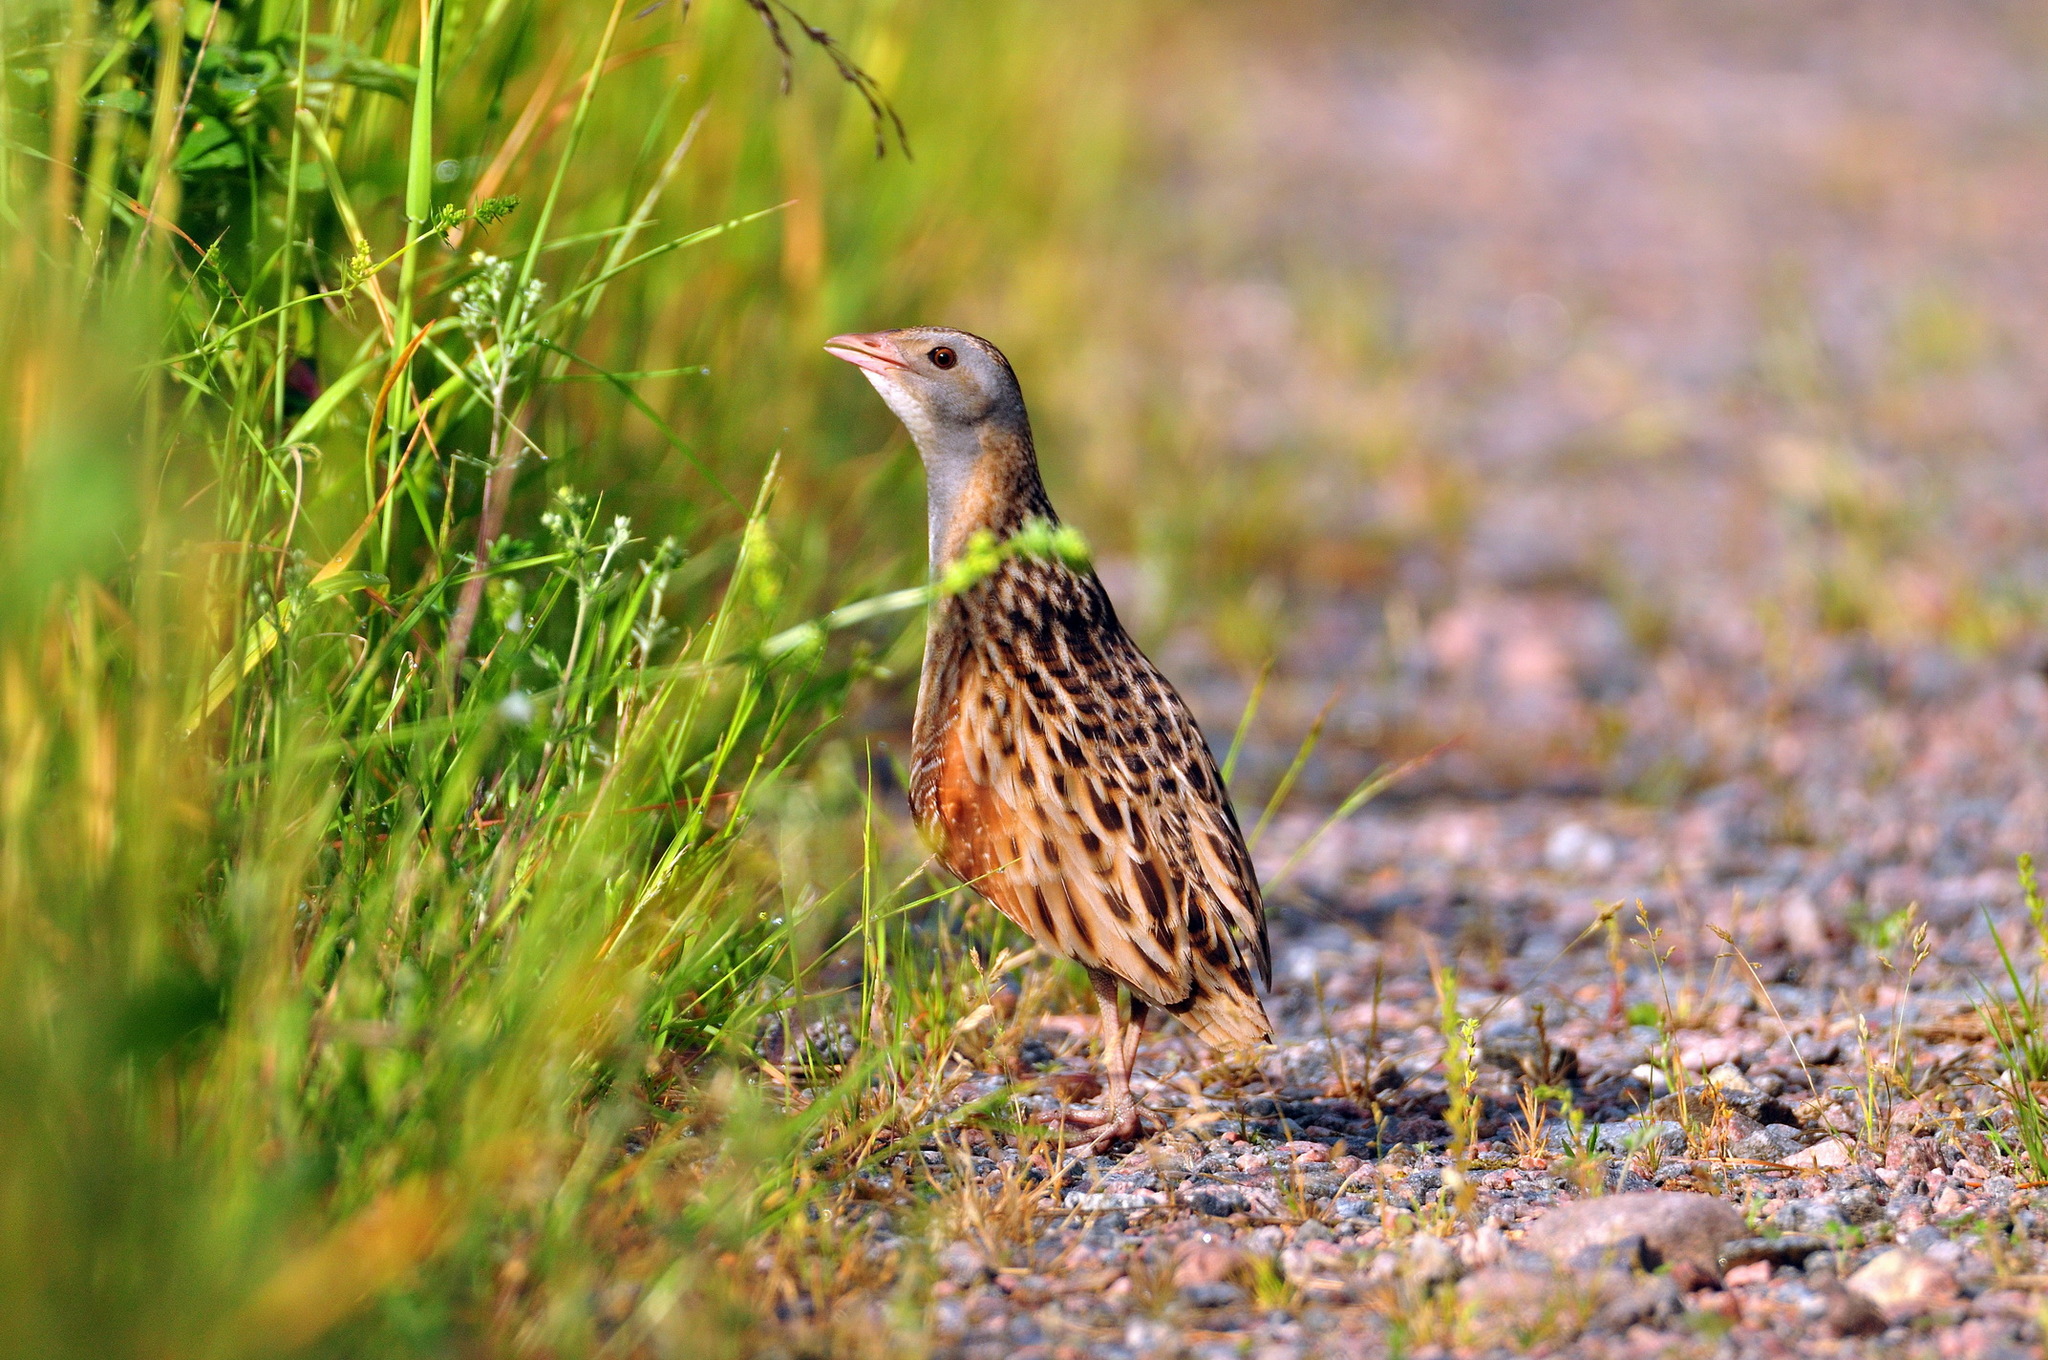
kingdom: Animalia
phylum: Chordata
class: Aves
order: Gruiformes
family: Rallidae
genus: Crex
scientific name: Crex crex
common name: Corn crake
